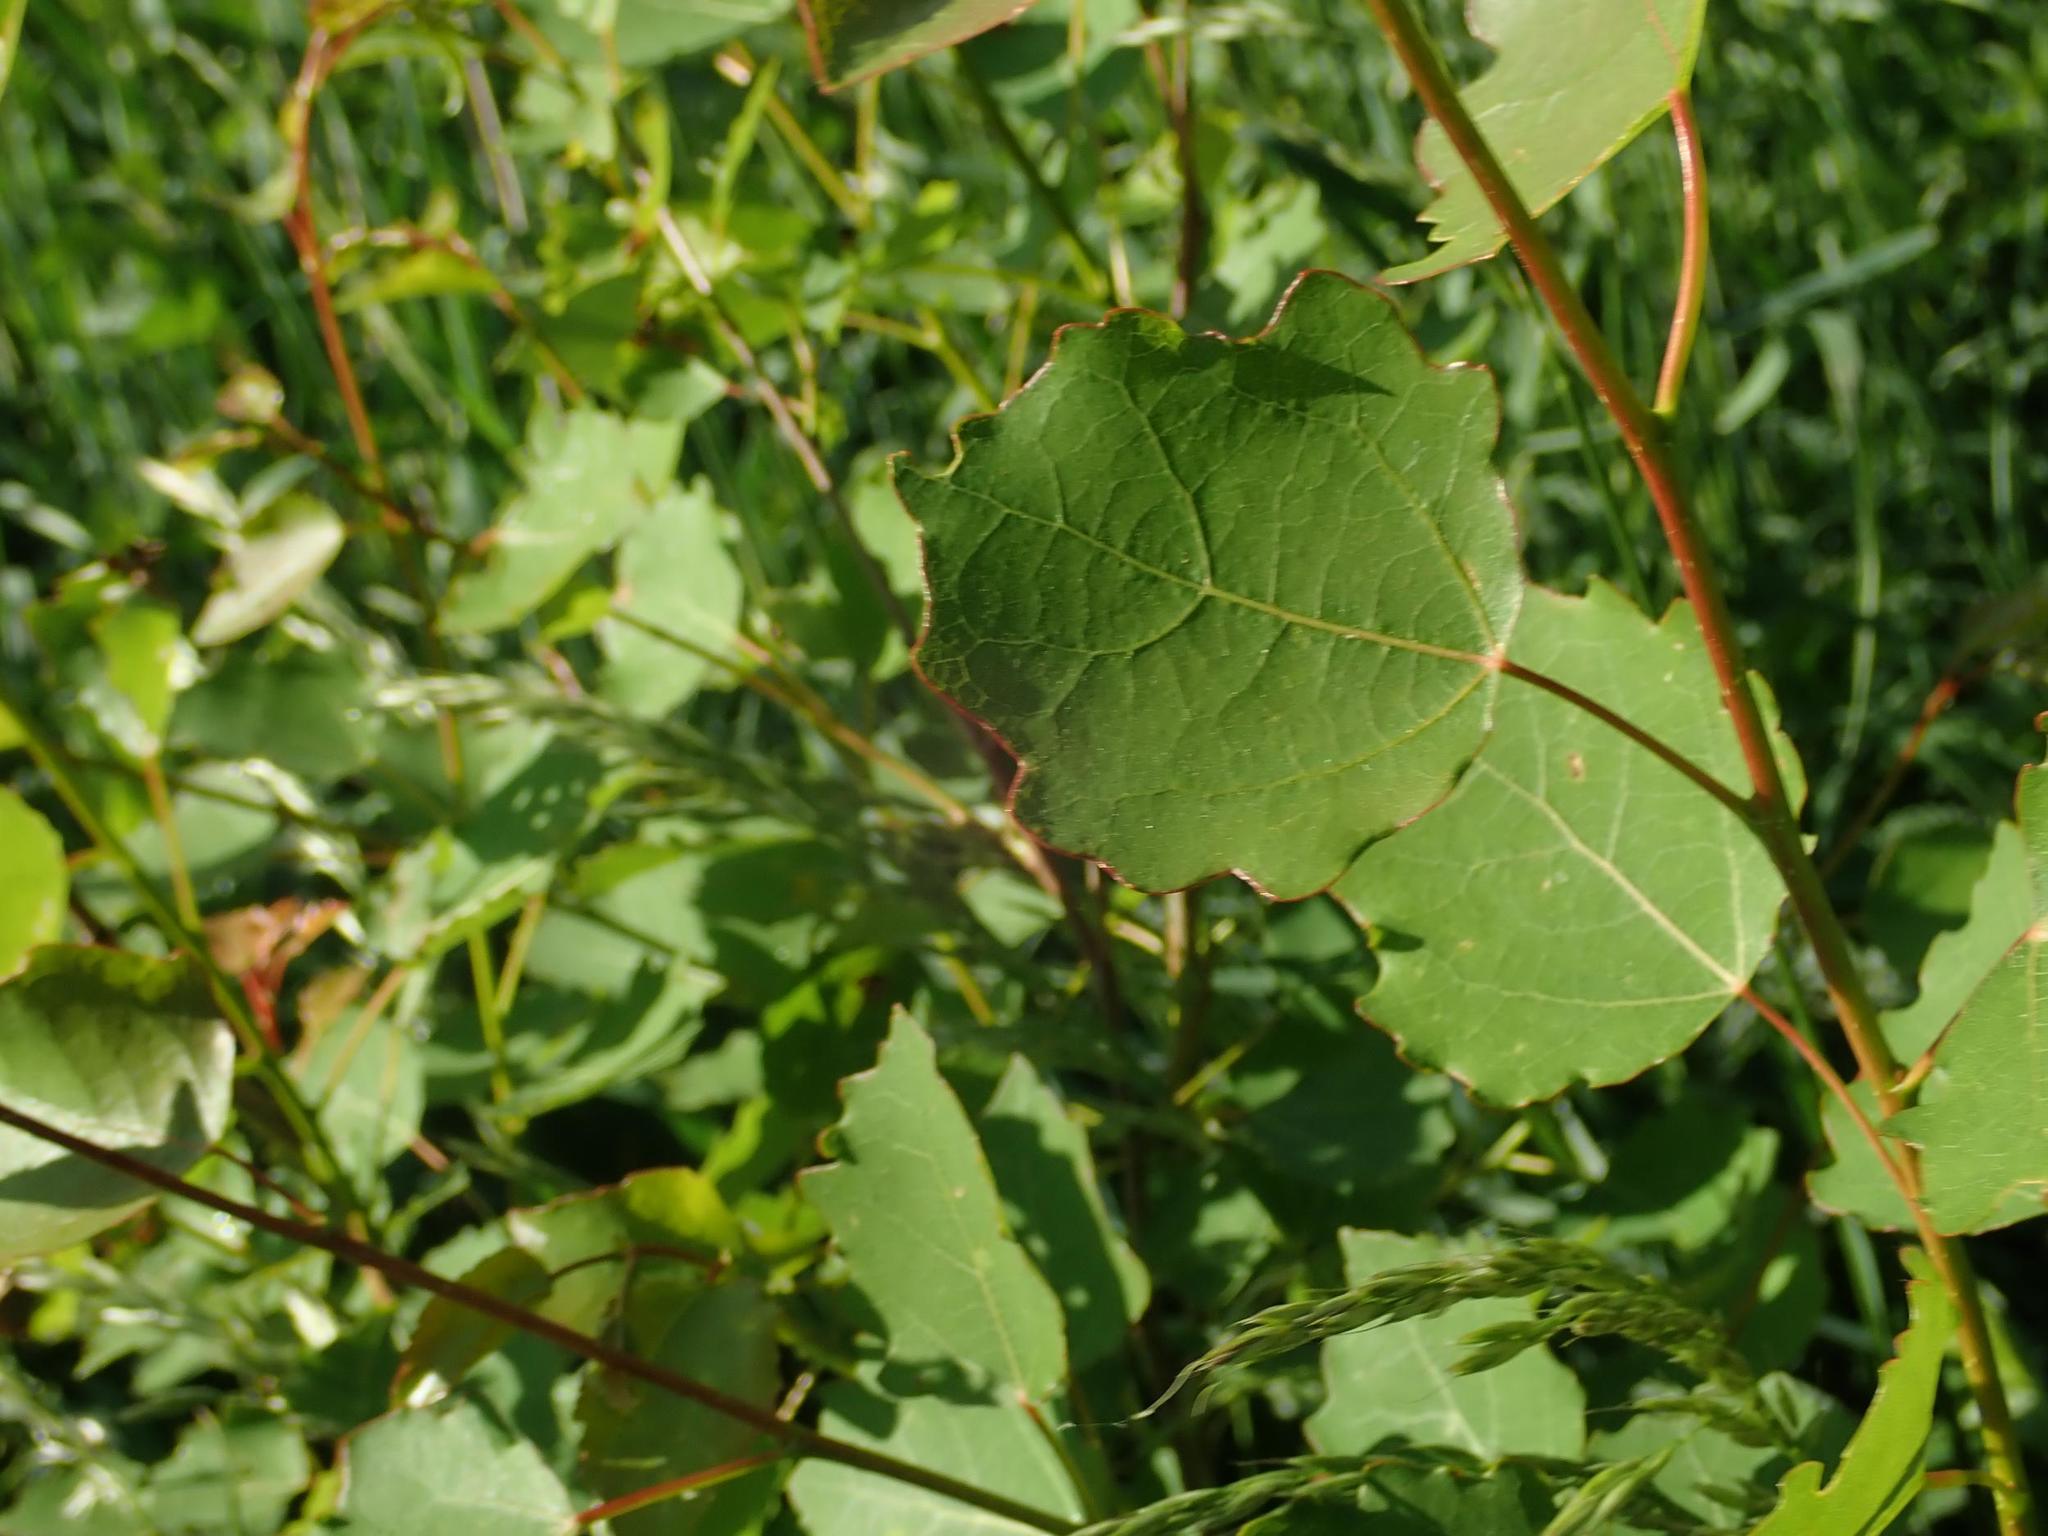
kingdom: Plantae
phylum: Tracheophyta
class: Magnoliopsida
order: Malpighiales
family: Salicaceae
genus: Populus
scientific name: Populus tremula
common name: European aspen
